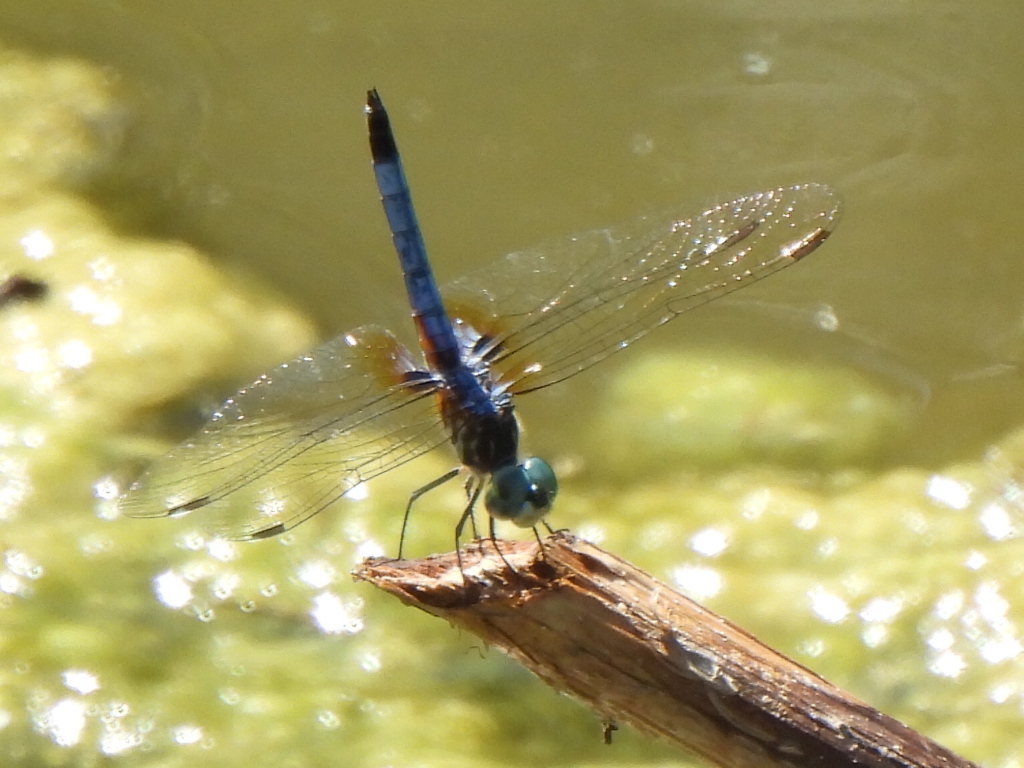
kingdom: Animalia
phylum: Arthropoda
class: Insecta
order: Odonata
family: Libellulidae
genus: Pachydiplax
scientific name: Pachydiplax longipennis
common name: Blue dasher
